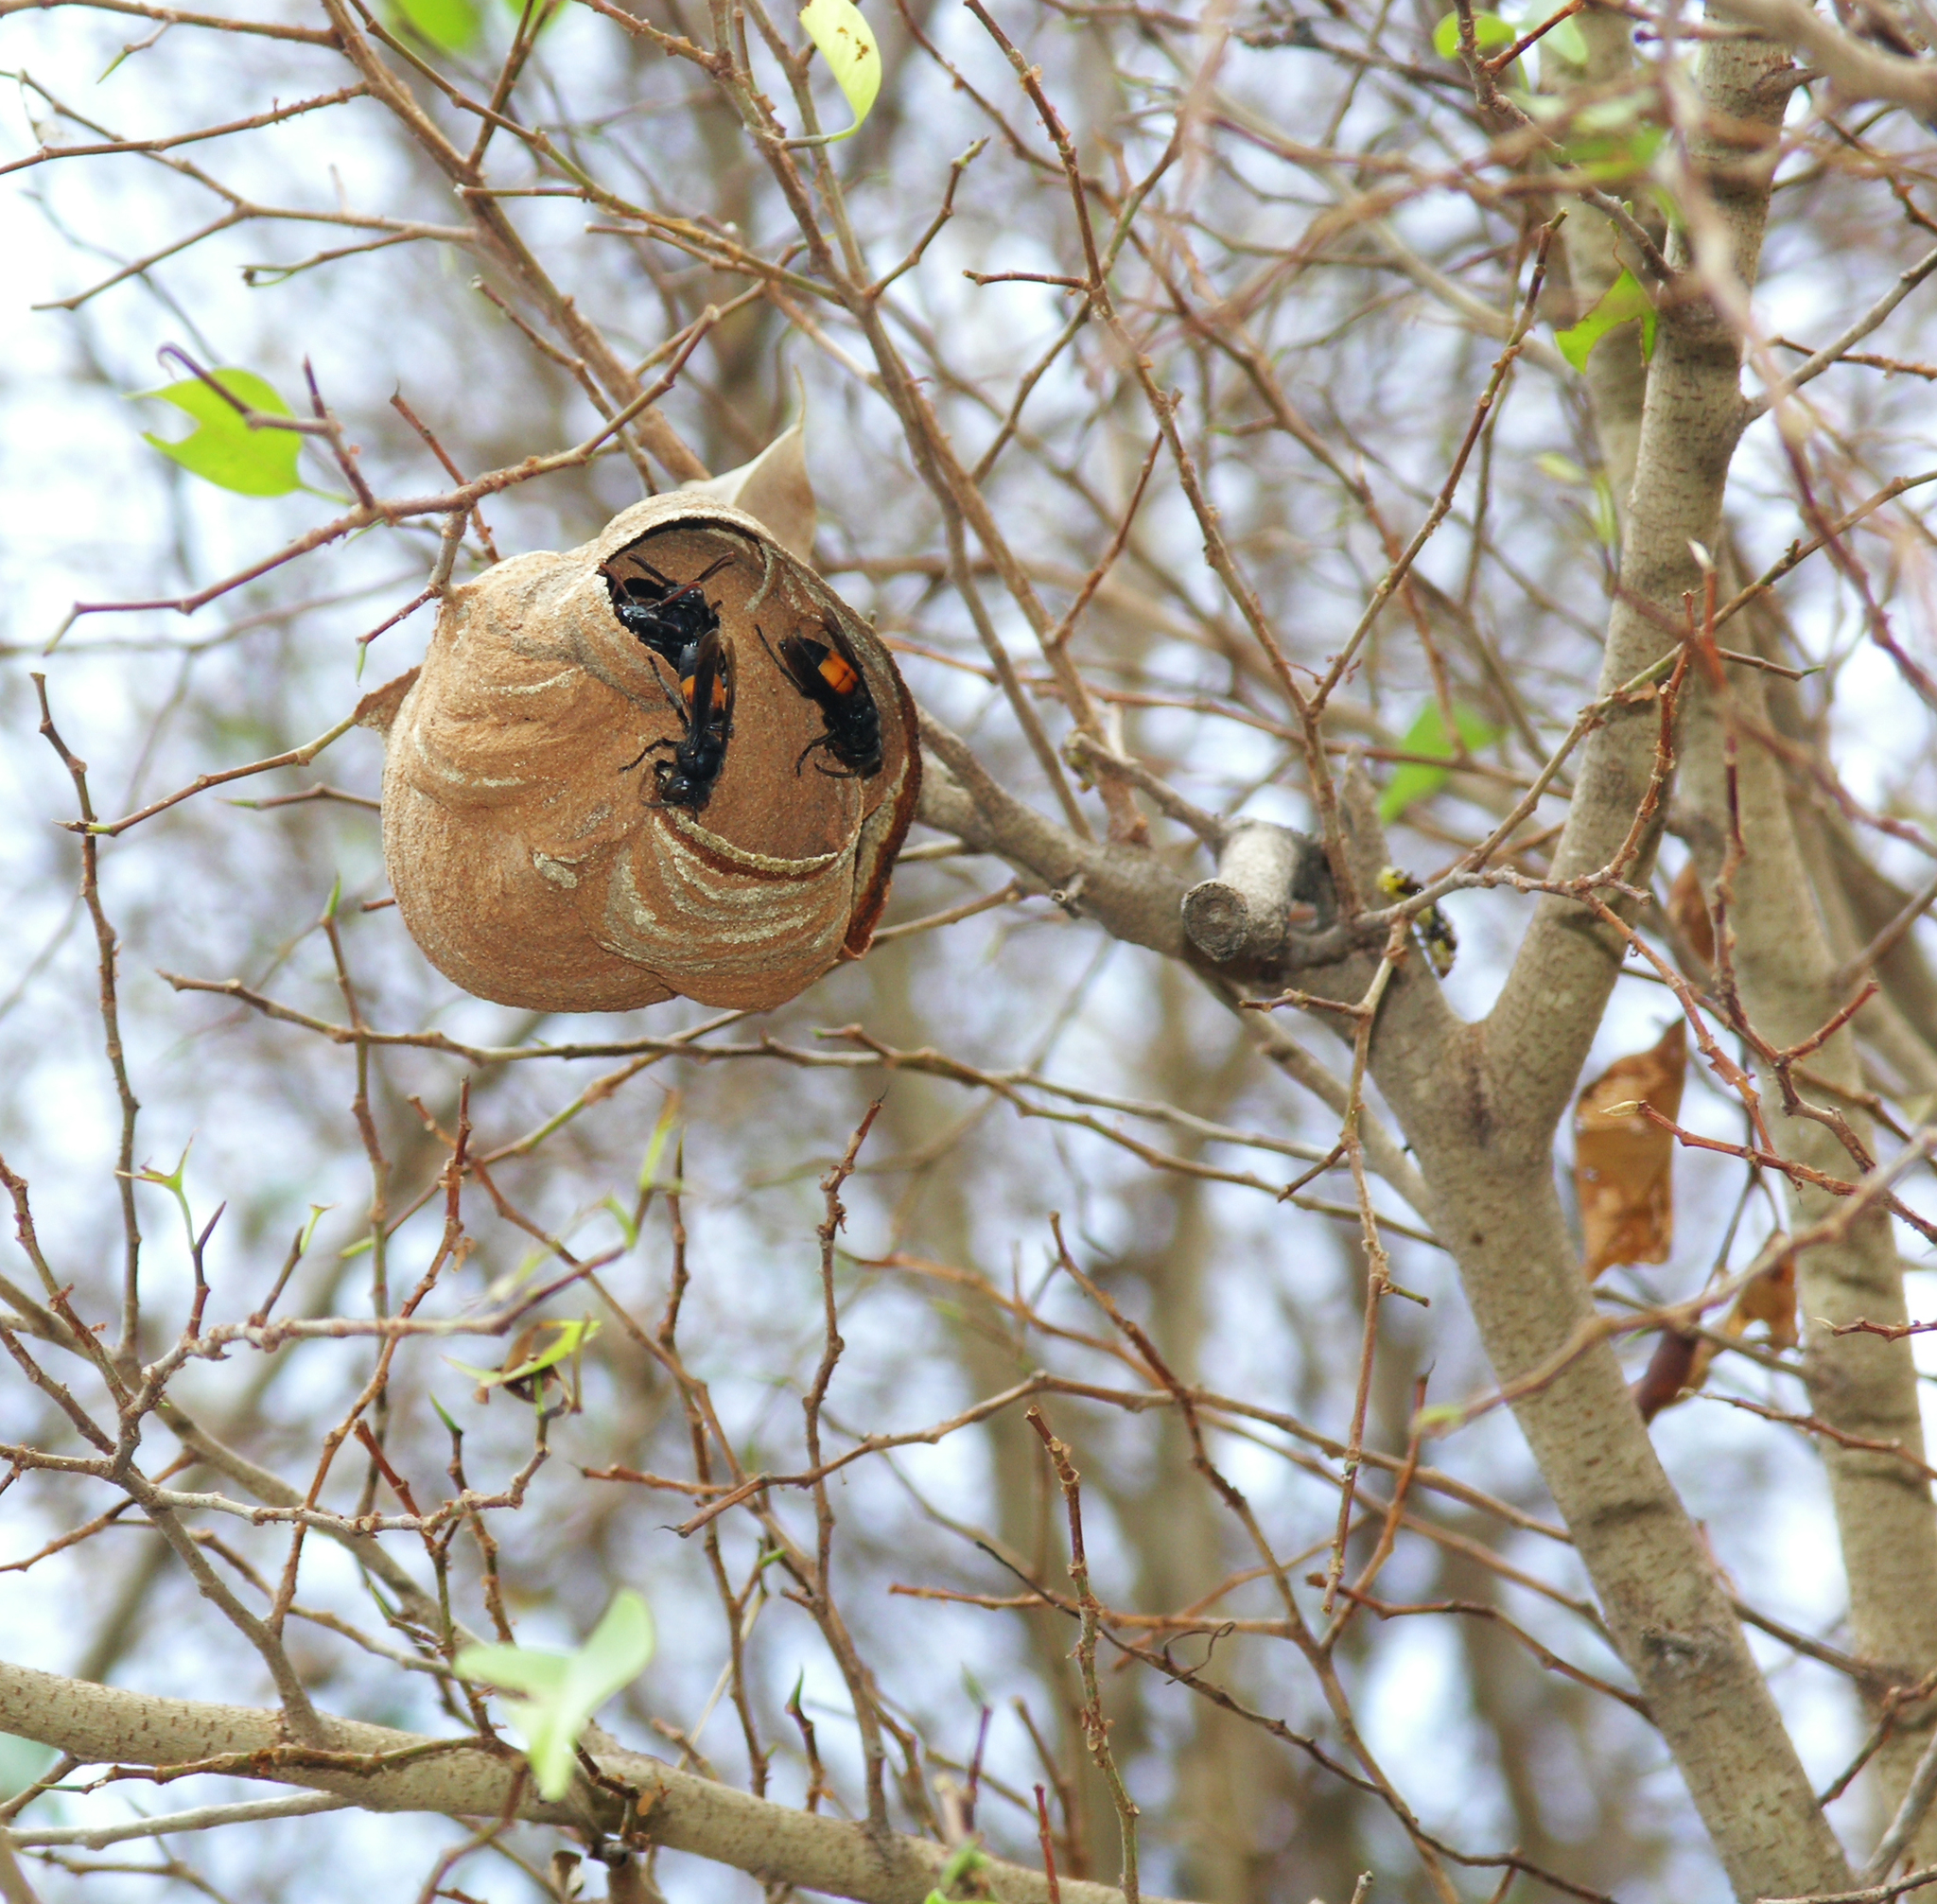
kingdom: Animalia
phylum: Arthropoda
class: Insecta
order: Hymenoptera
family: Vespidae
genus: Vespa
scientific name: Vespa affinis
